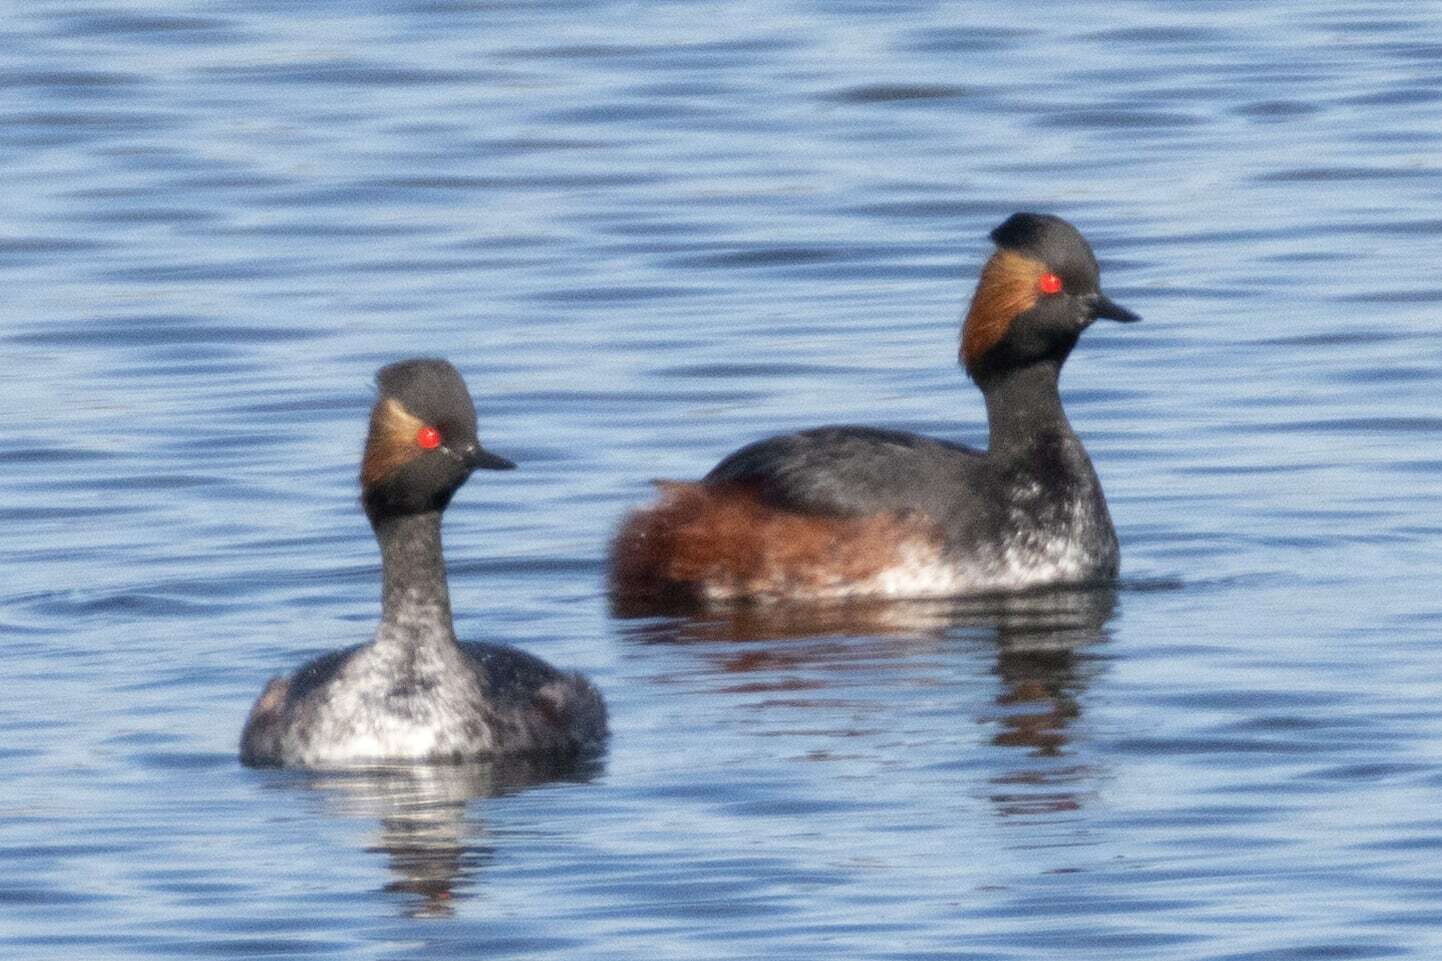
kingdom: Animalia
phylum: Chordata
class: Aves
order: Podicipediformes
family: Podicipedidae
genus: Podiceps
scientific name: Podiceps nigricollis
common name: Black-necked grebe
